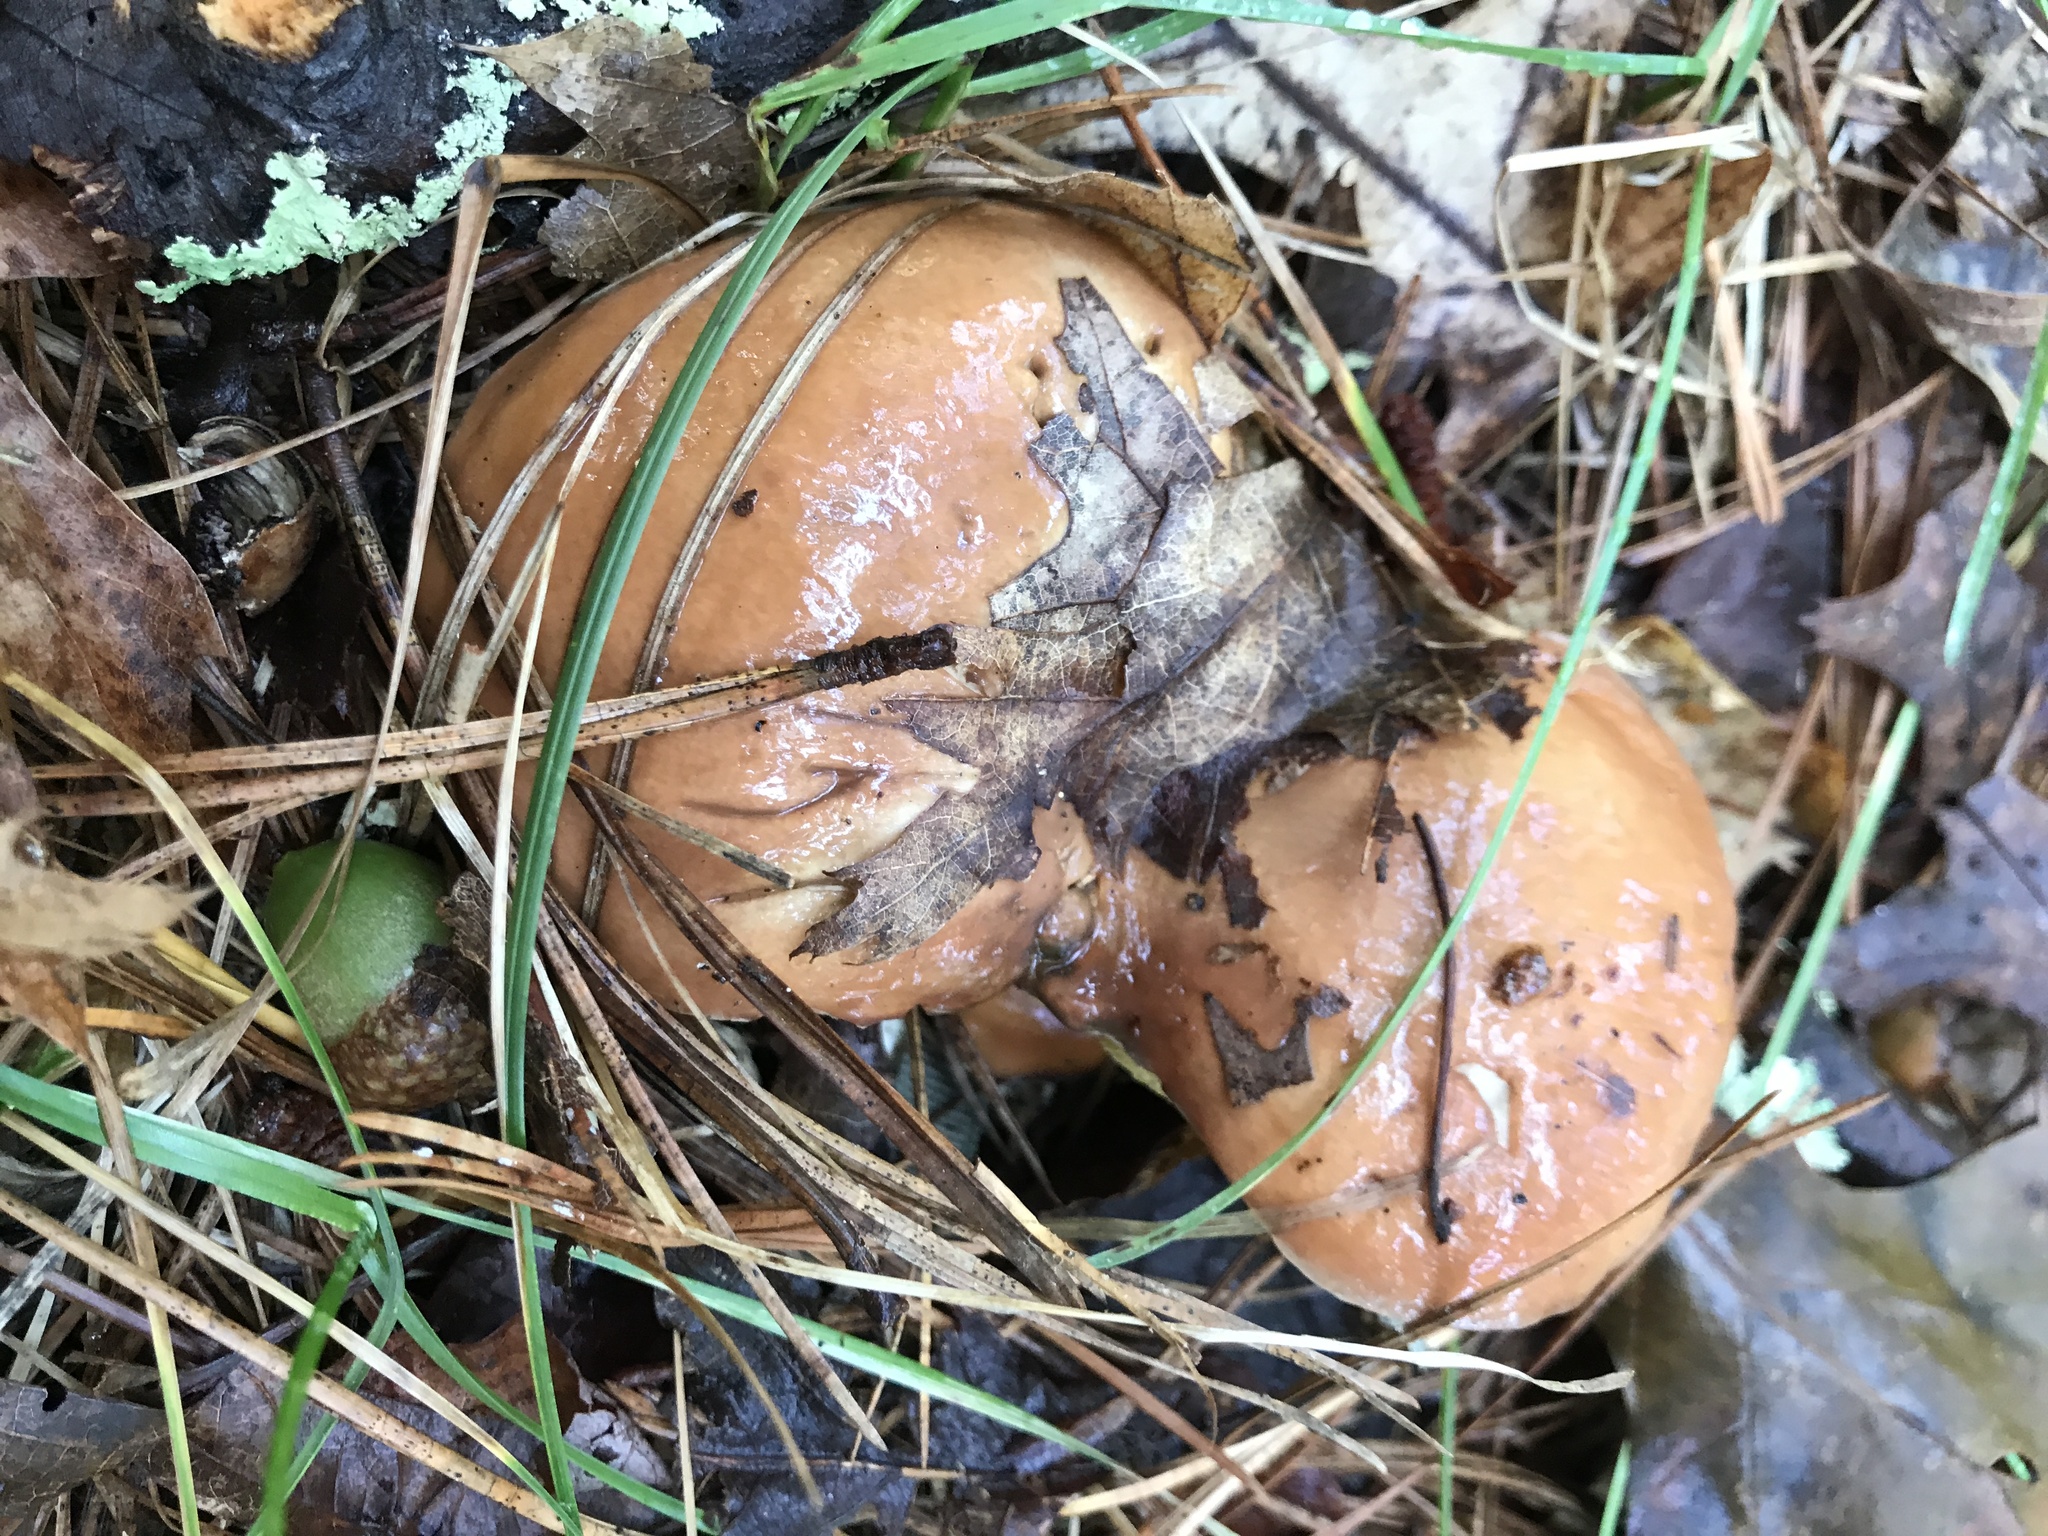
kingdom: Fungi
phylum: Basidiomycota
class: Agaricomycetes
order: Boletales
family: Suillaceae
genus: Suillus
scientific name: Suillus brevipes
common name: Short-stalked suillus
